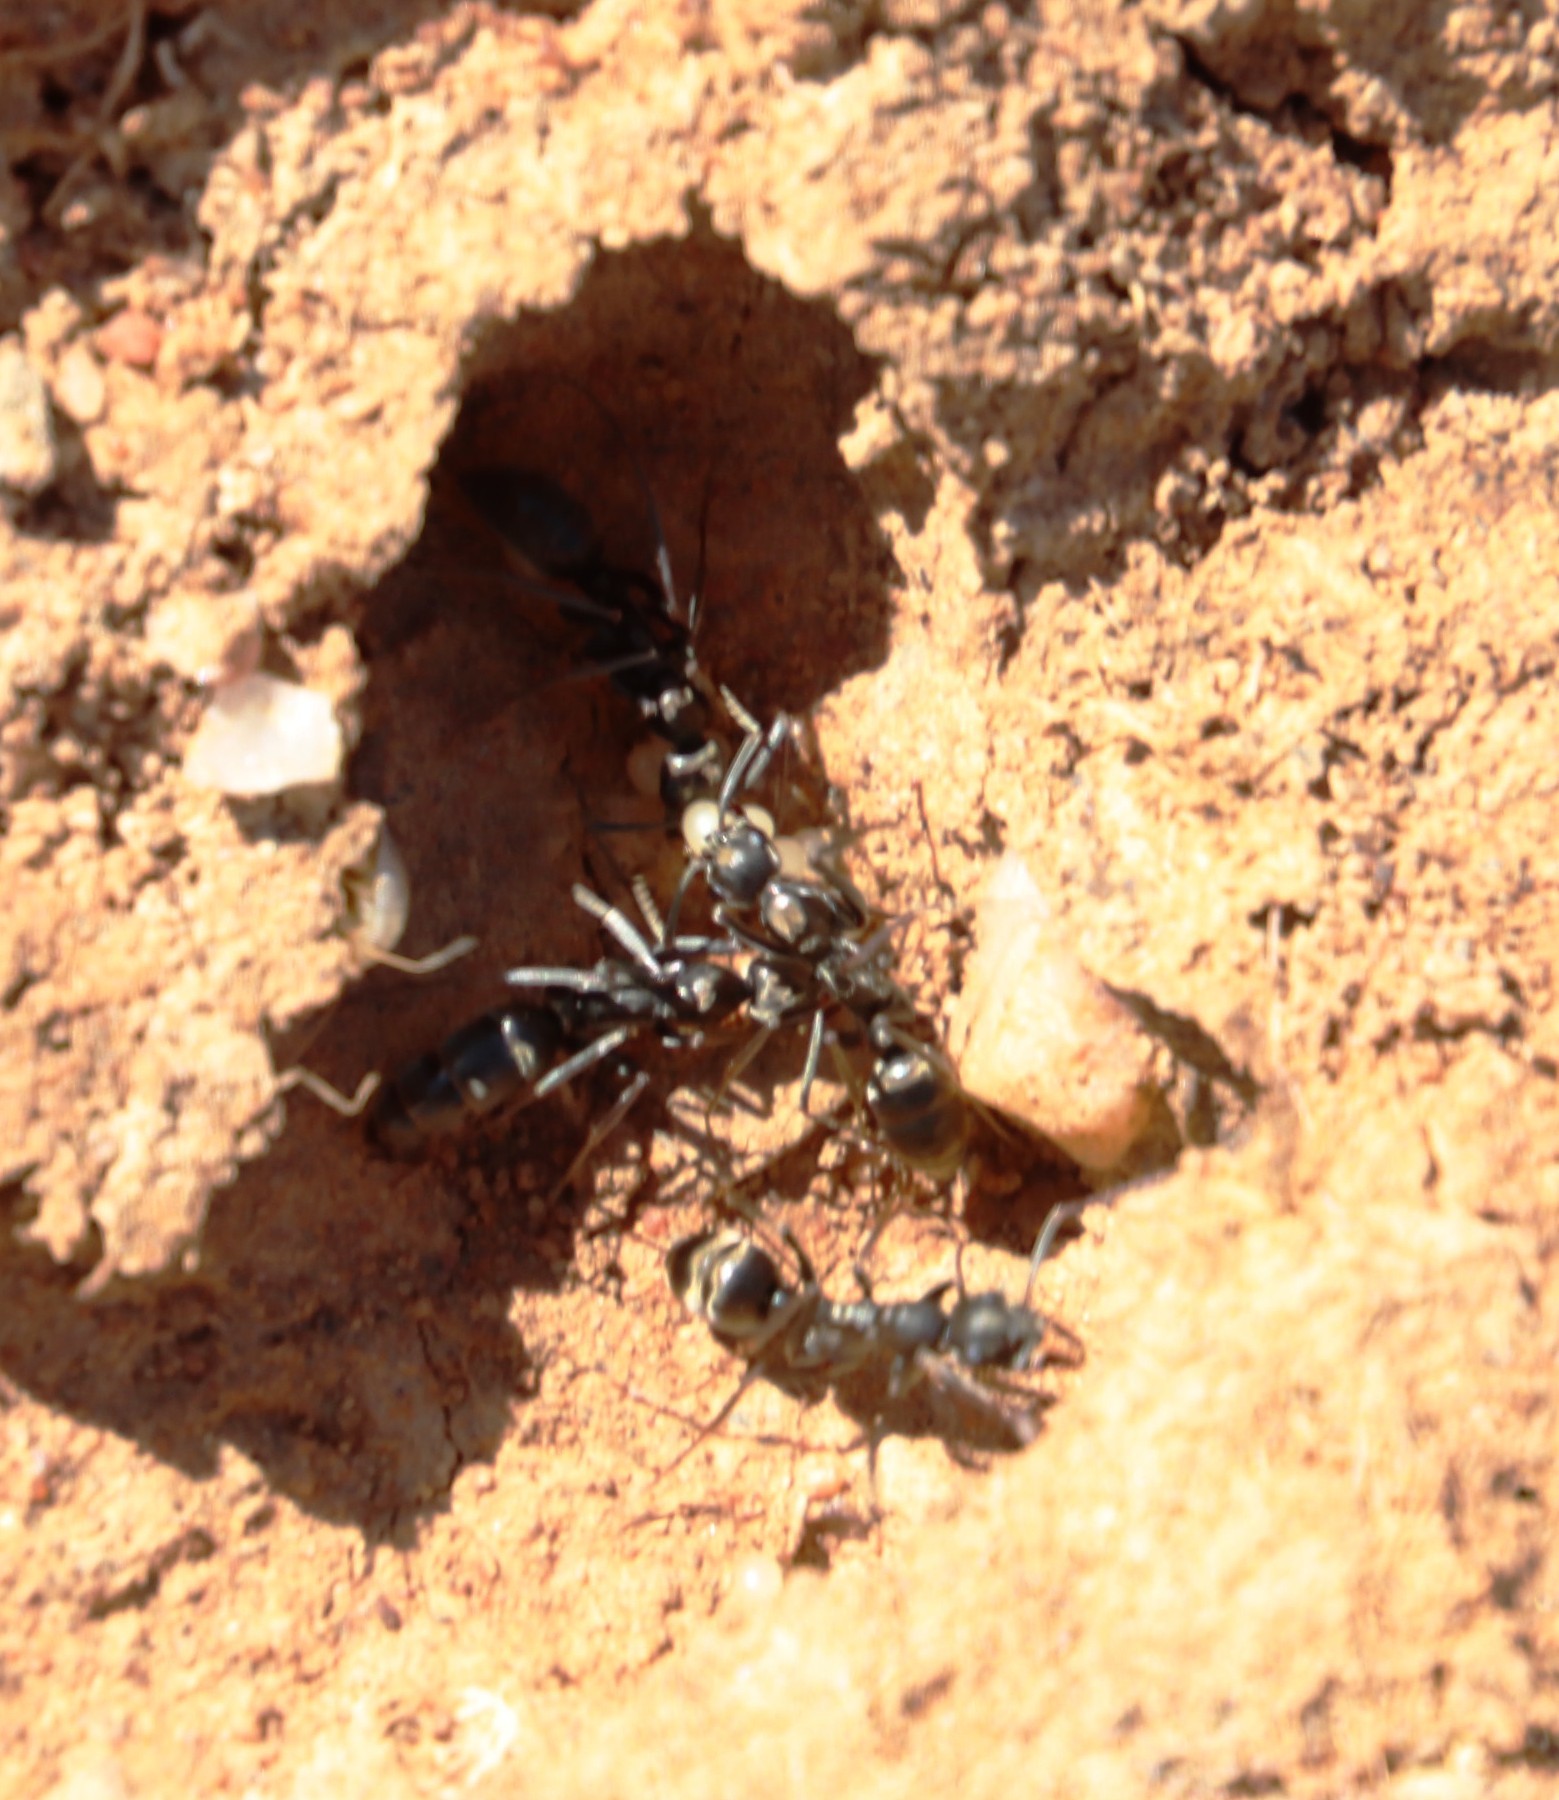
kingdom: Animalia
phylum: Arthropoda
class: Insecta
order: Hymenoptera
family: Formicidae
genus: Ophthalmopone
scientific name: Ophthalmopone
